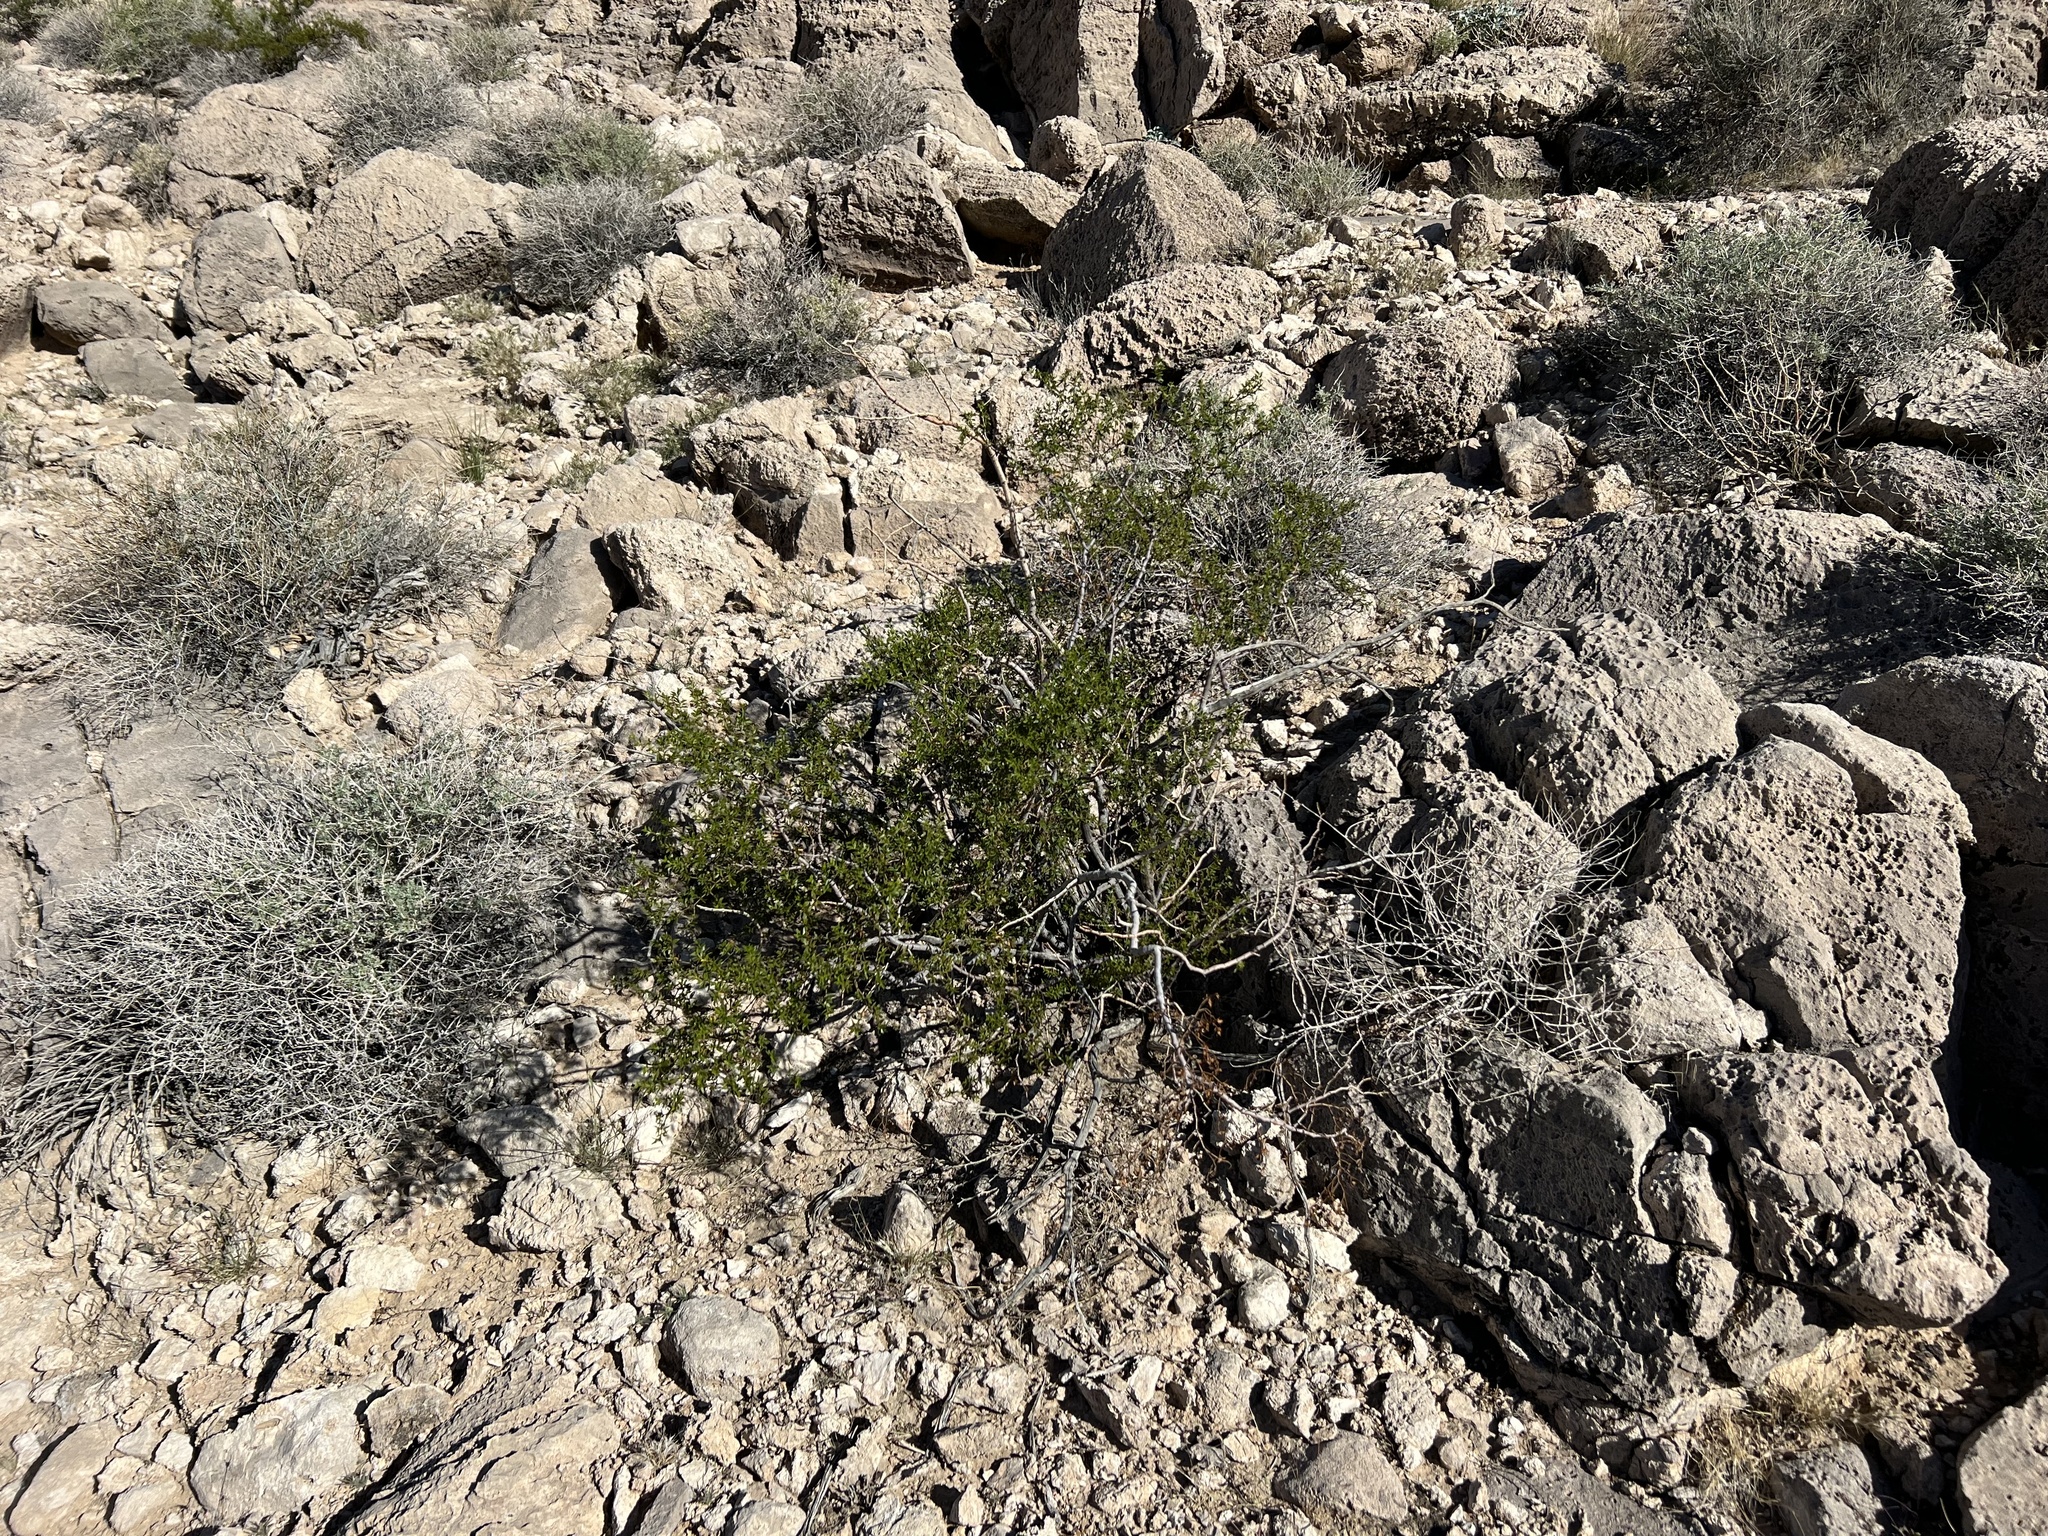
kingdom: Plantae
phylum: Tracheophyta
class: Magnoliopsida
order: Zygophyllales
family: Zygophyllaceae
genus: Larrea
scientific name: Larrea tridentata
